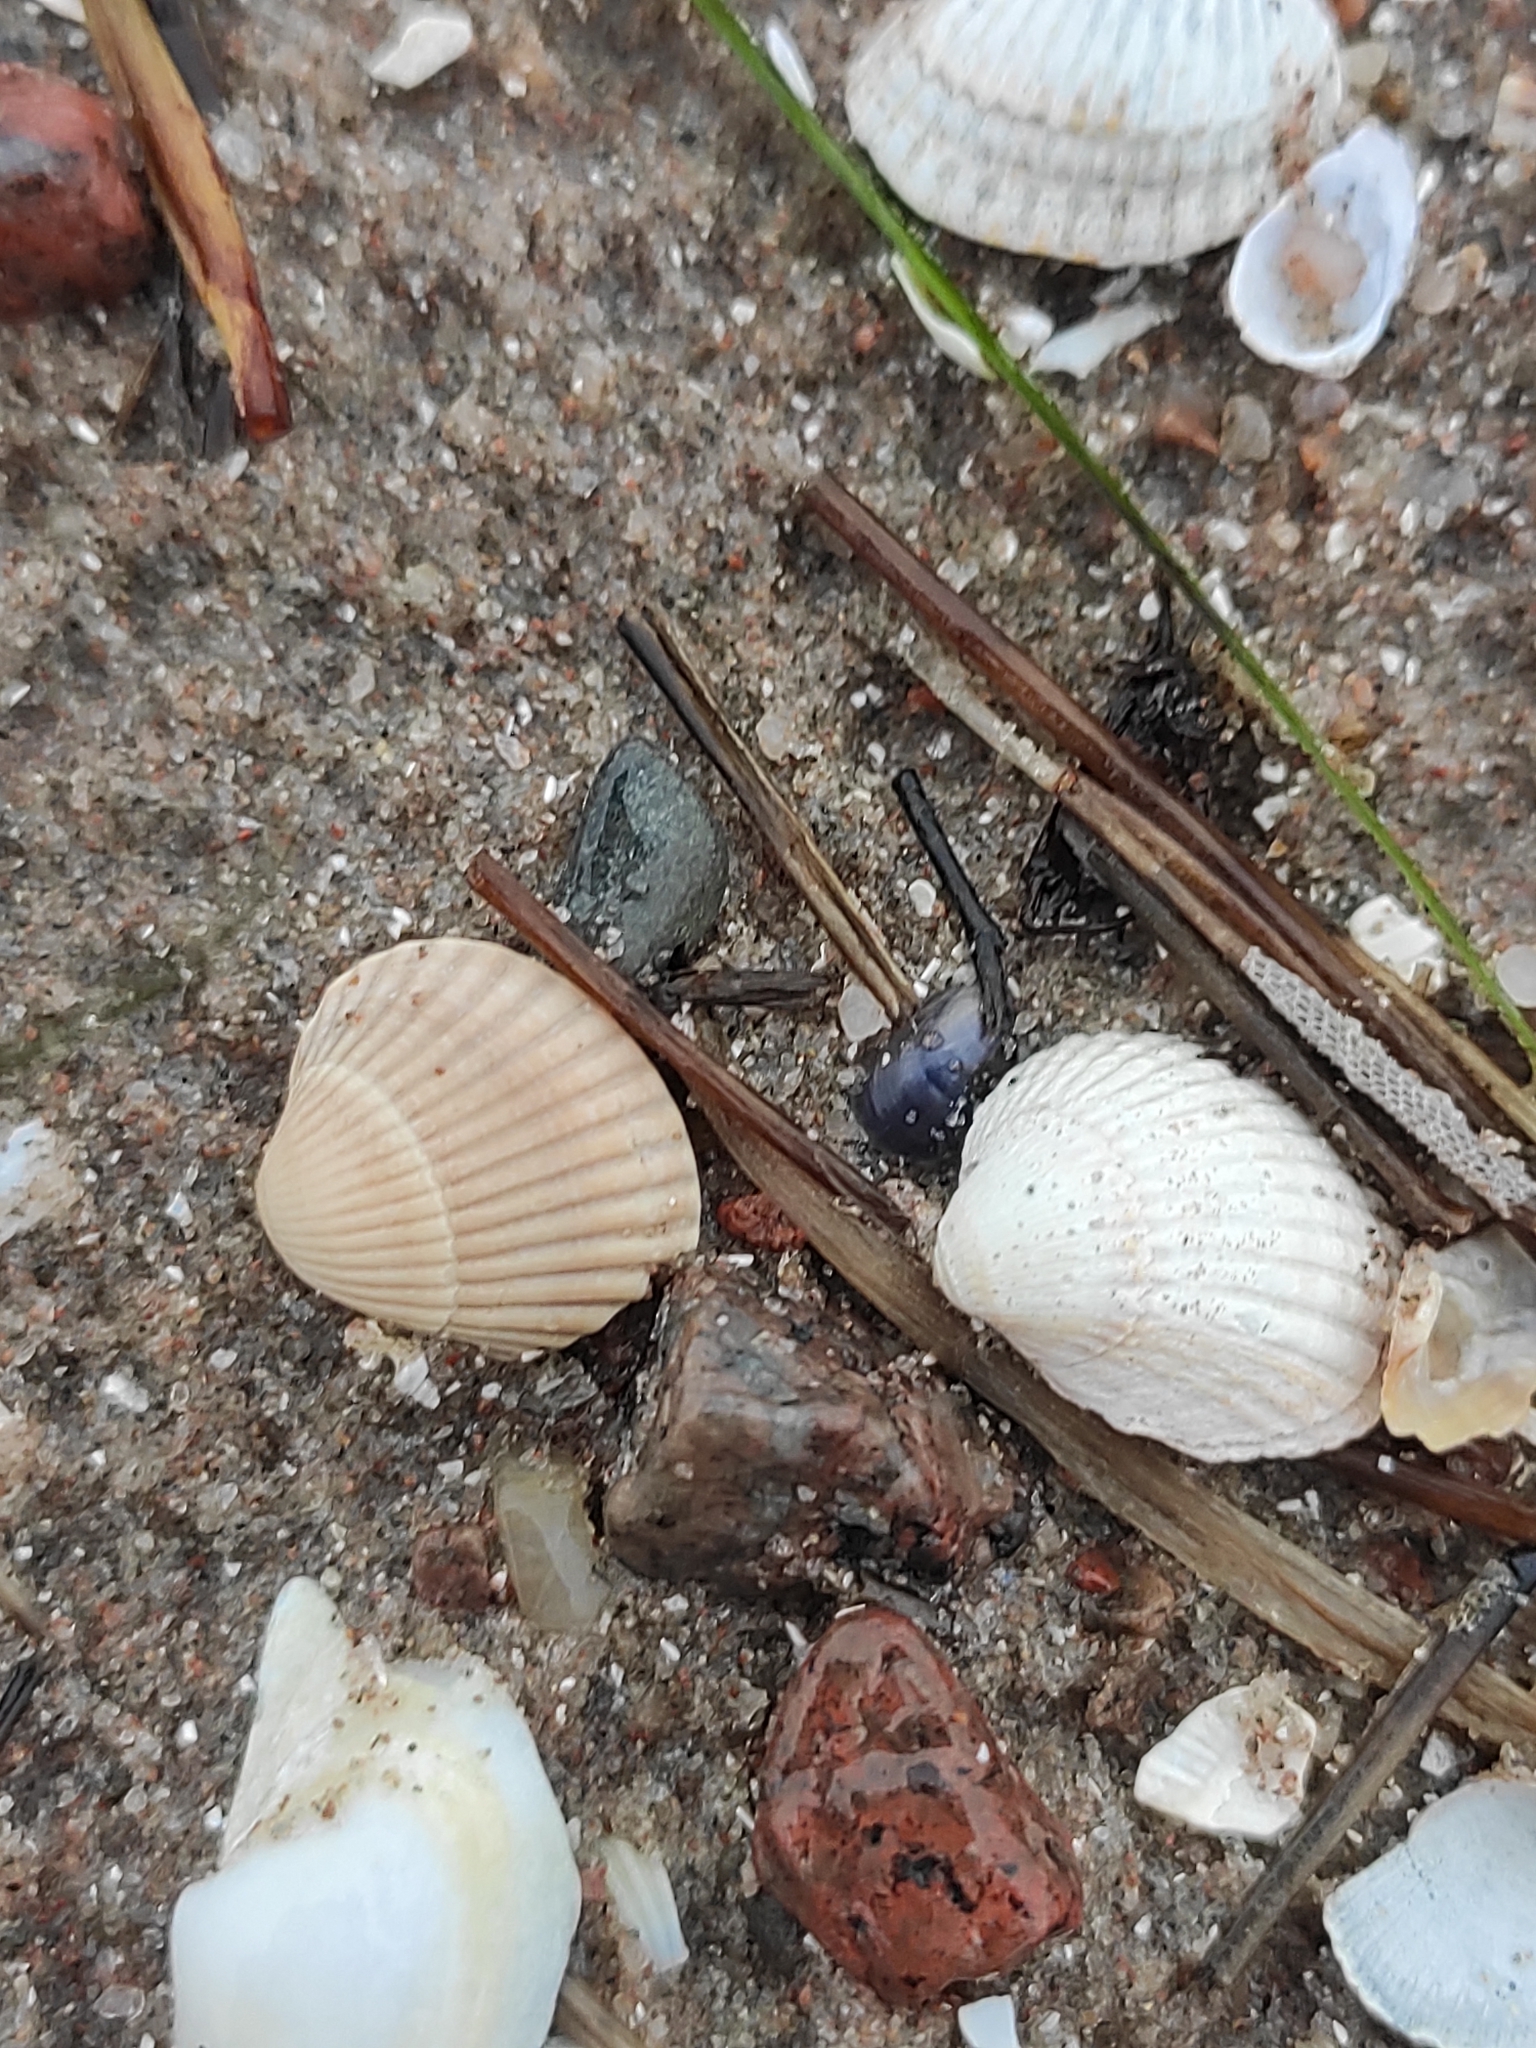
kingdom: Animalia
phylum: Mollusca
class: Bivalvia
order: Cardiida
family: Cardiidae
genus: Cerastoderma
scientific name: Cerastoderma glaucum
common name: Lagoon cockle
